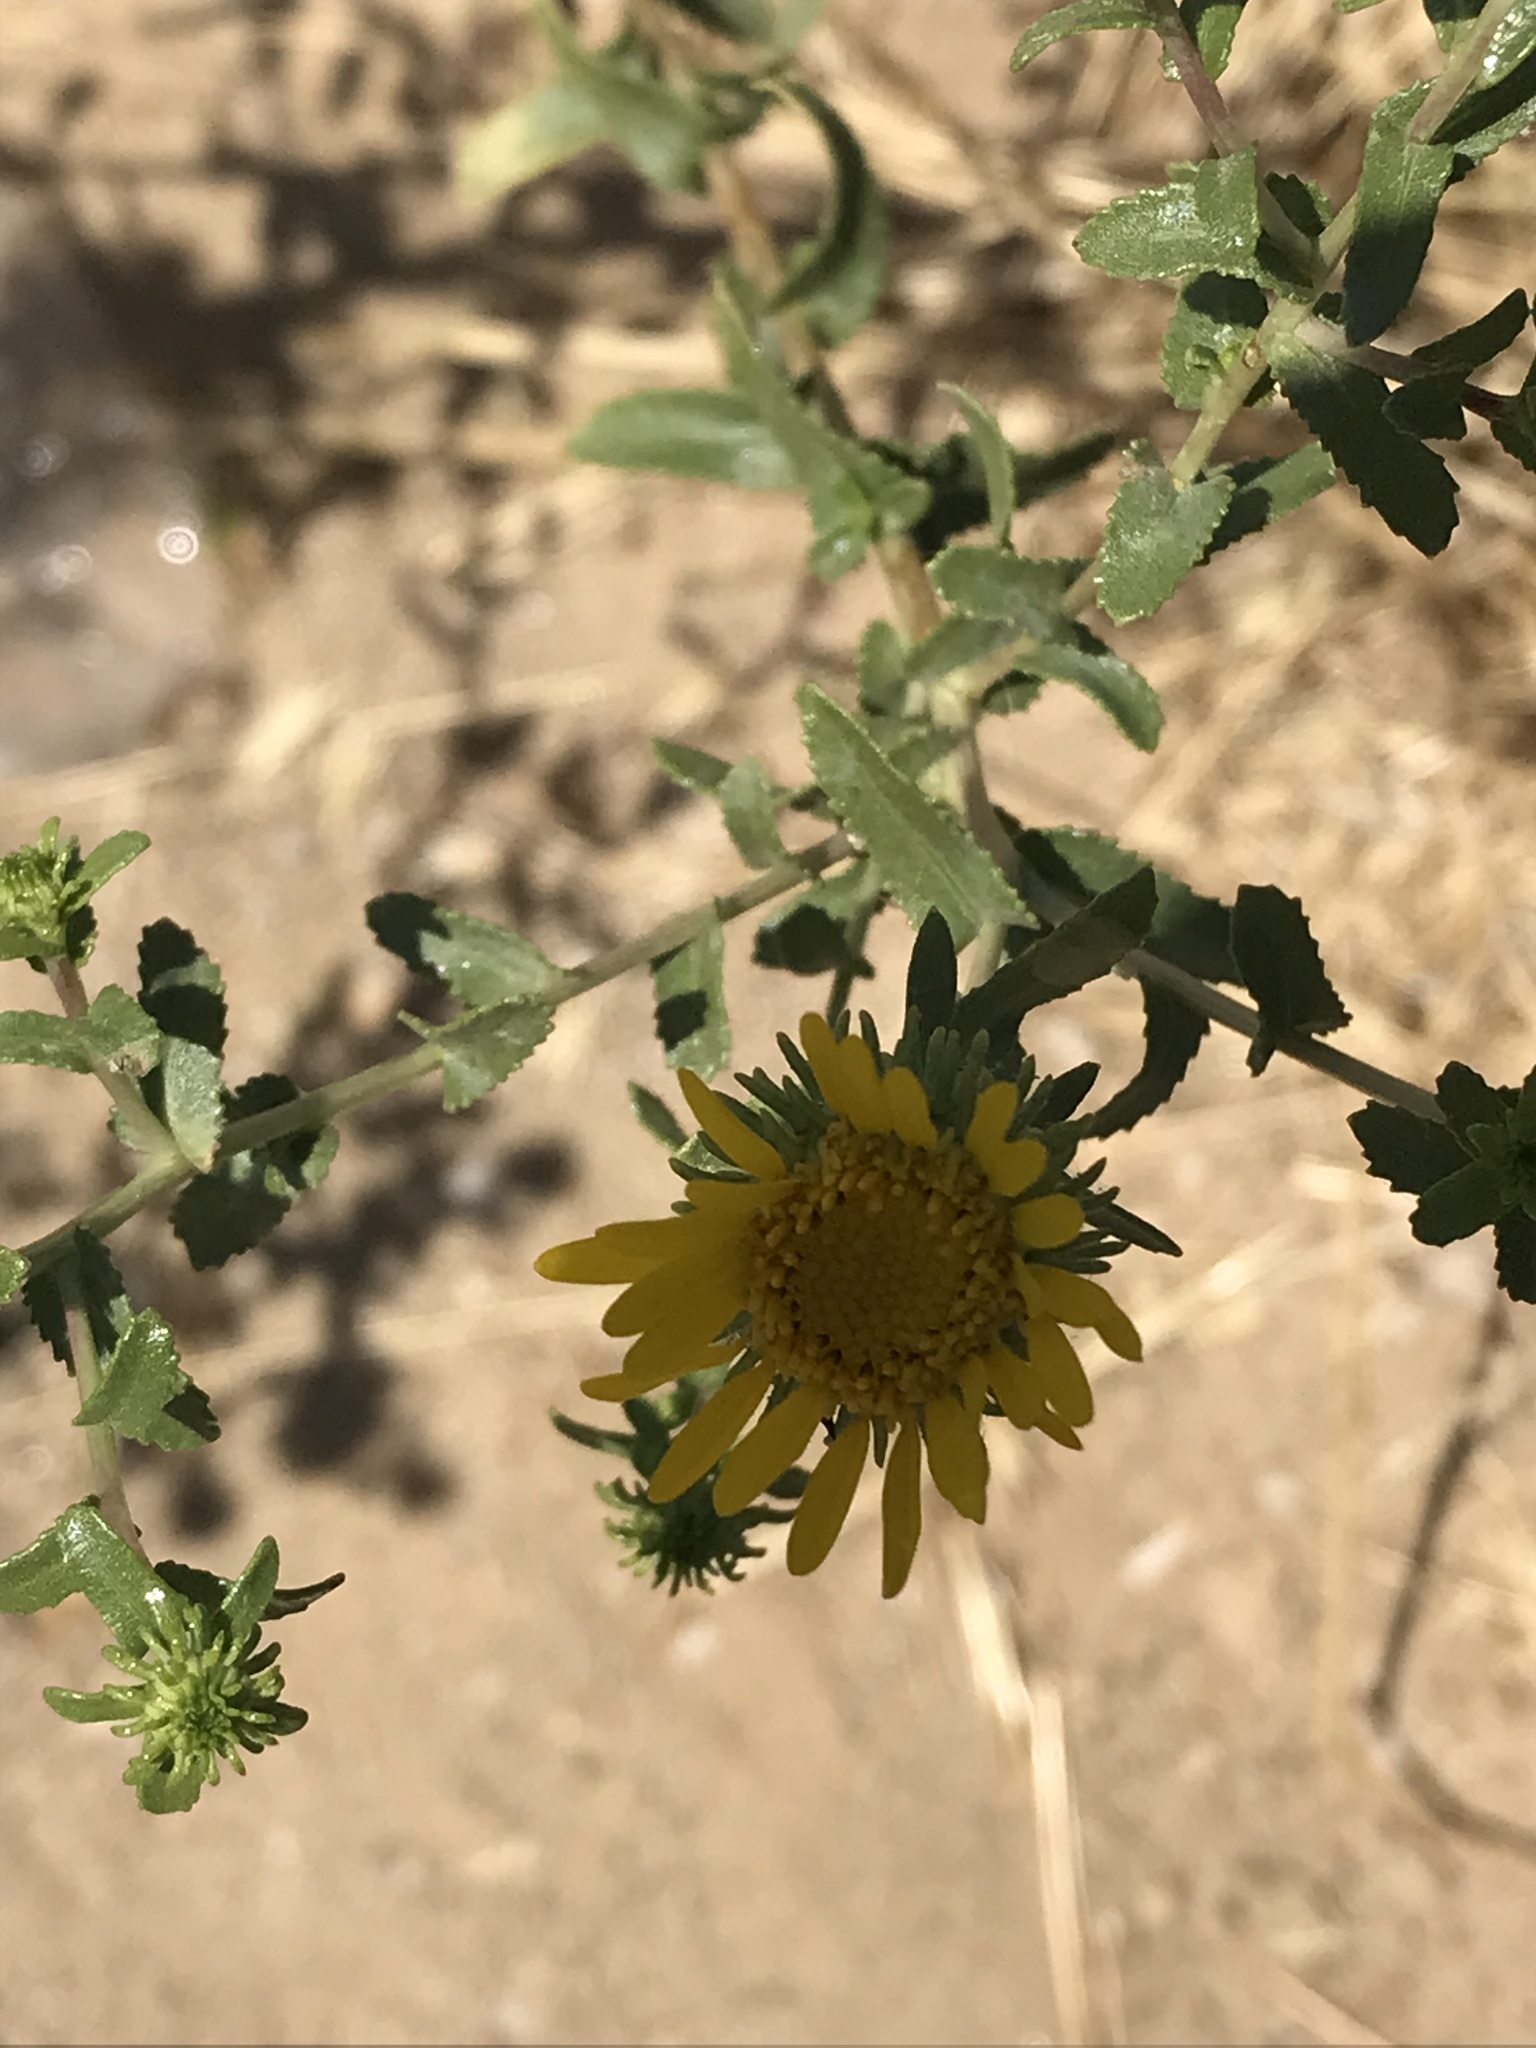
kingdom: Plantae
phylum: Tracheophyta
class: Magnoliopsida
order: Asterales
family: Asteraceae
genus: Grindelia
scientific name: Grindelia squarrosa
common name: Curly-cup gumweed
